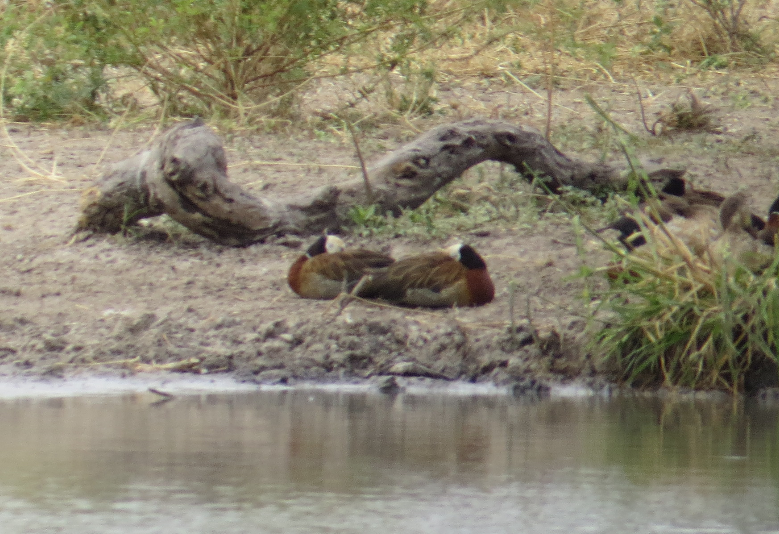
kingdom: Animalia
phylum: Chordata
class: Aves
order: Anseriformes
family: Anatidae
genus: Dendrocygna
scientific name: Dendrocygna viduata
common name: White-faced whistling duck
